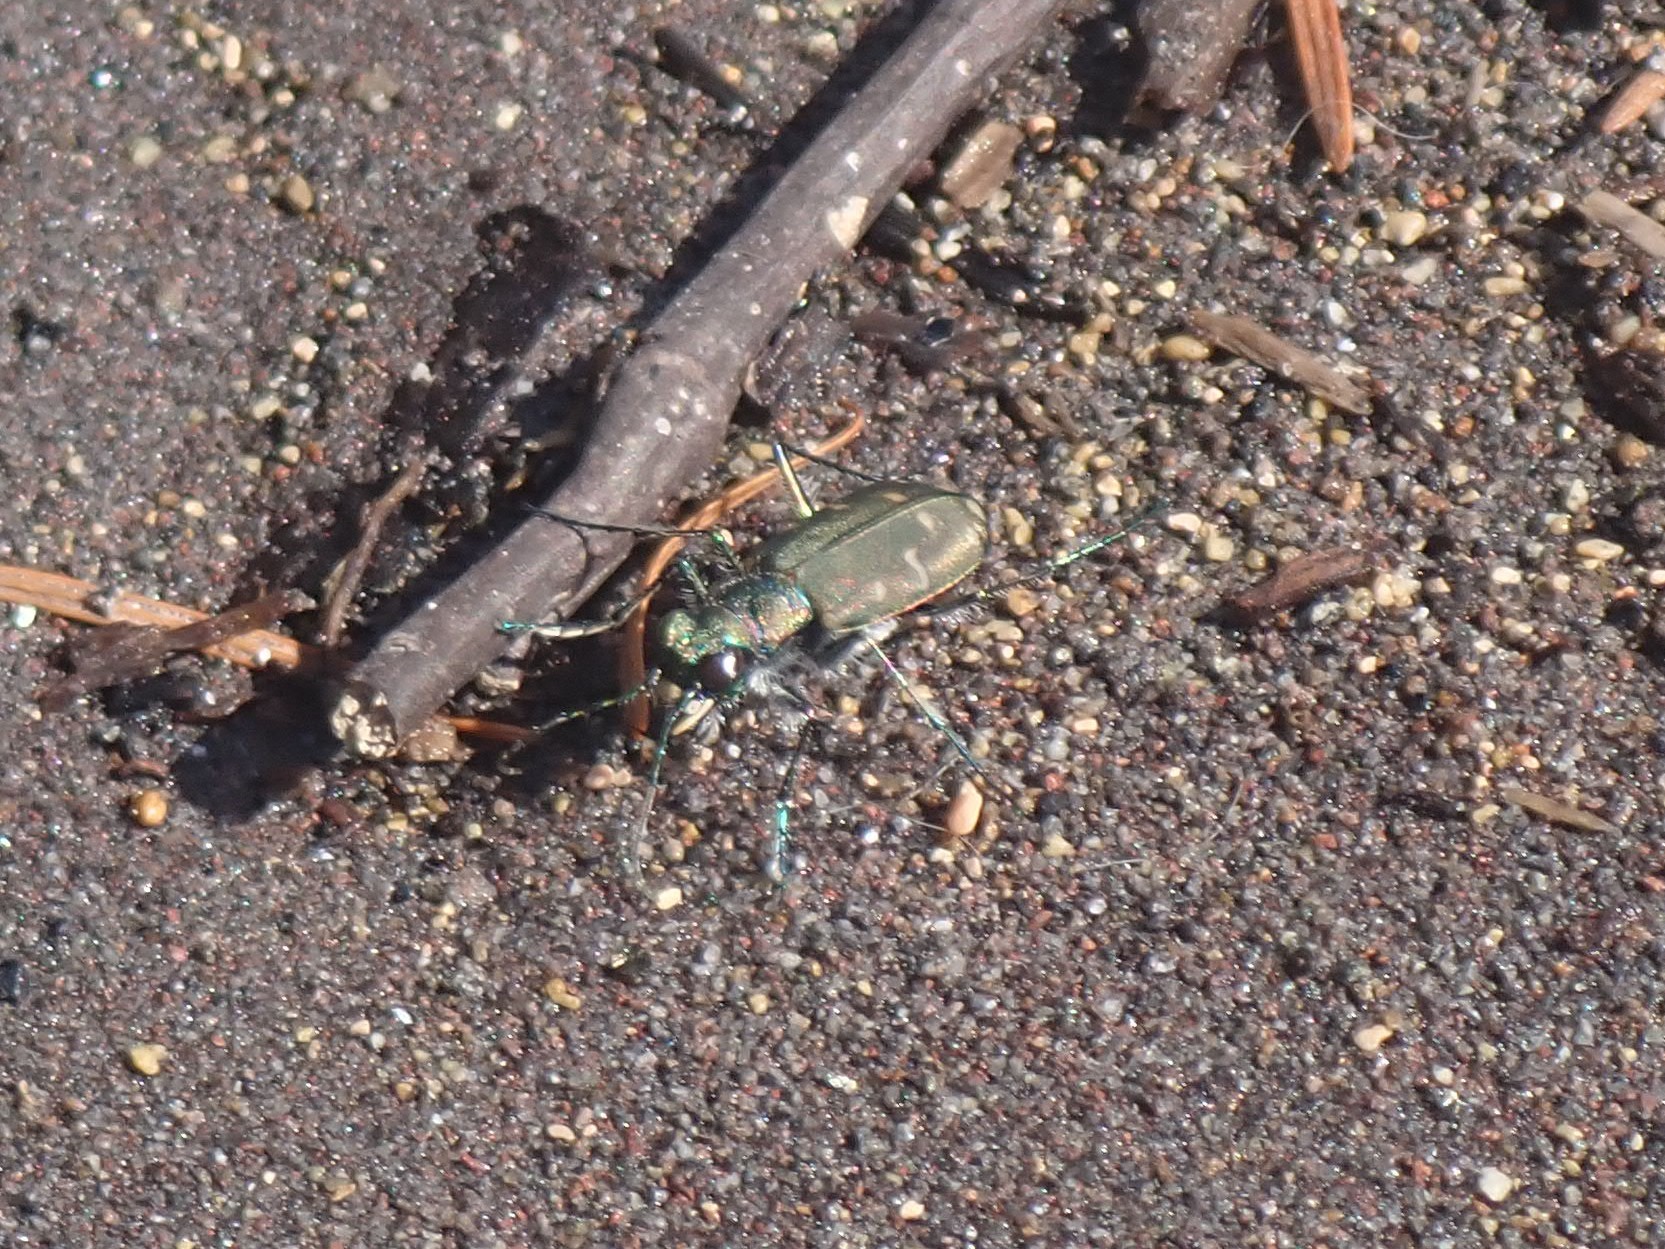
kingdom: Animalia
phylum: Arthropoda
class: Insecta
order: Coleoptera
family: Carabidae
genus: Cicindela
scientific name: Cicindela oregona
